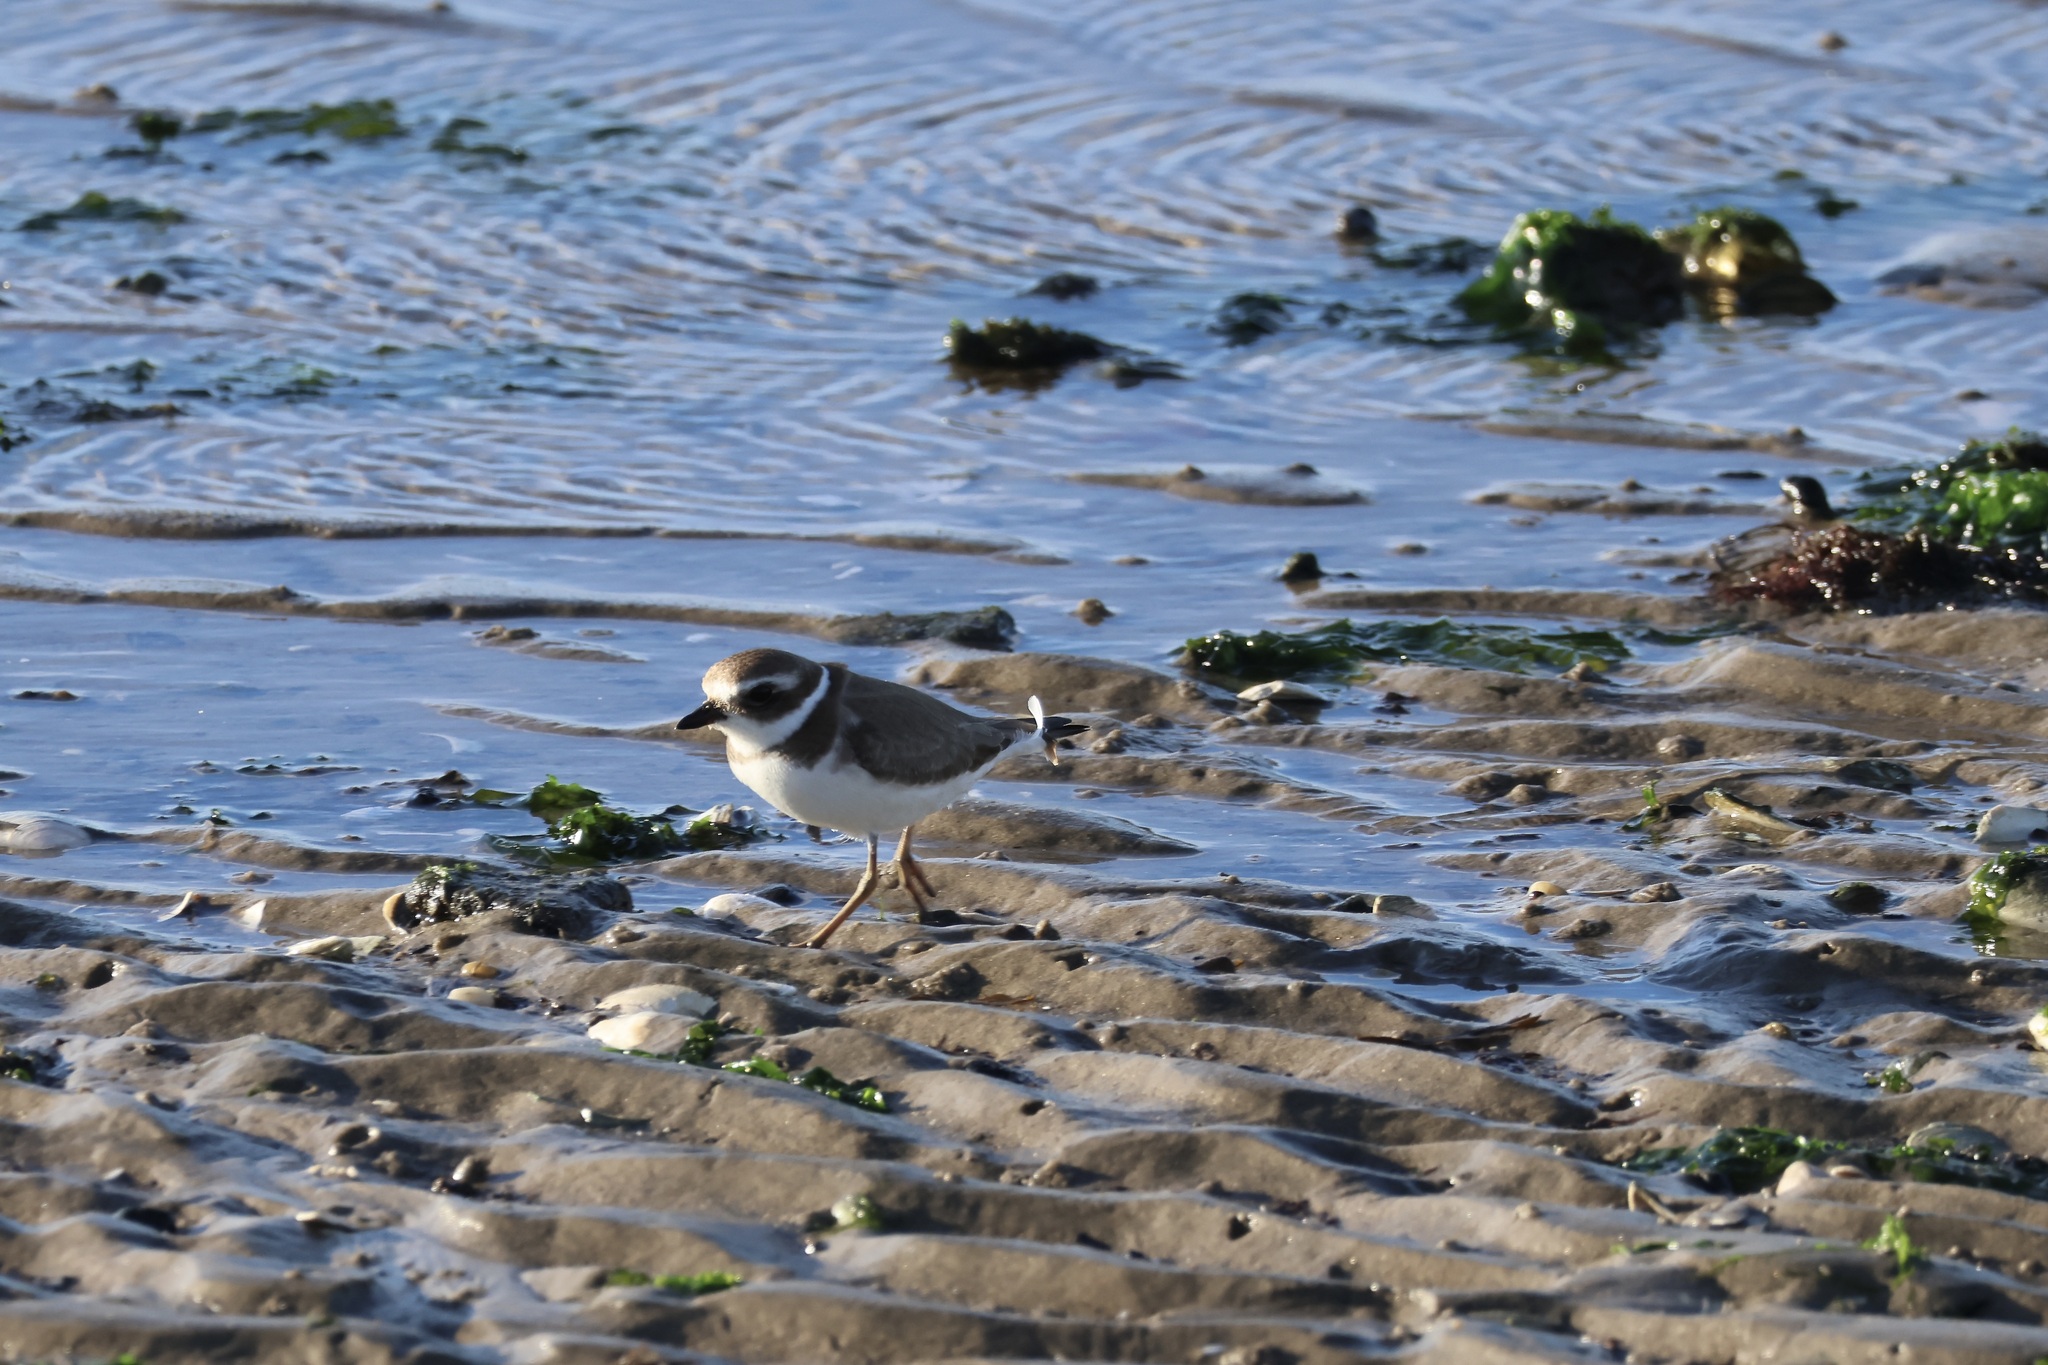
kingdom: Animalia
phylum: Chordata
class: Aves
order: Charadriiformes
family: Charadriidae
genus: Charadrius
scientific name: Charadrius semipalmatus
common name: Semipalmated plover
